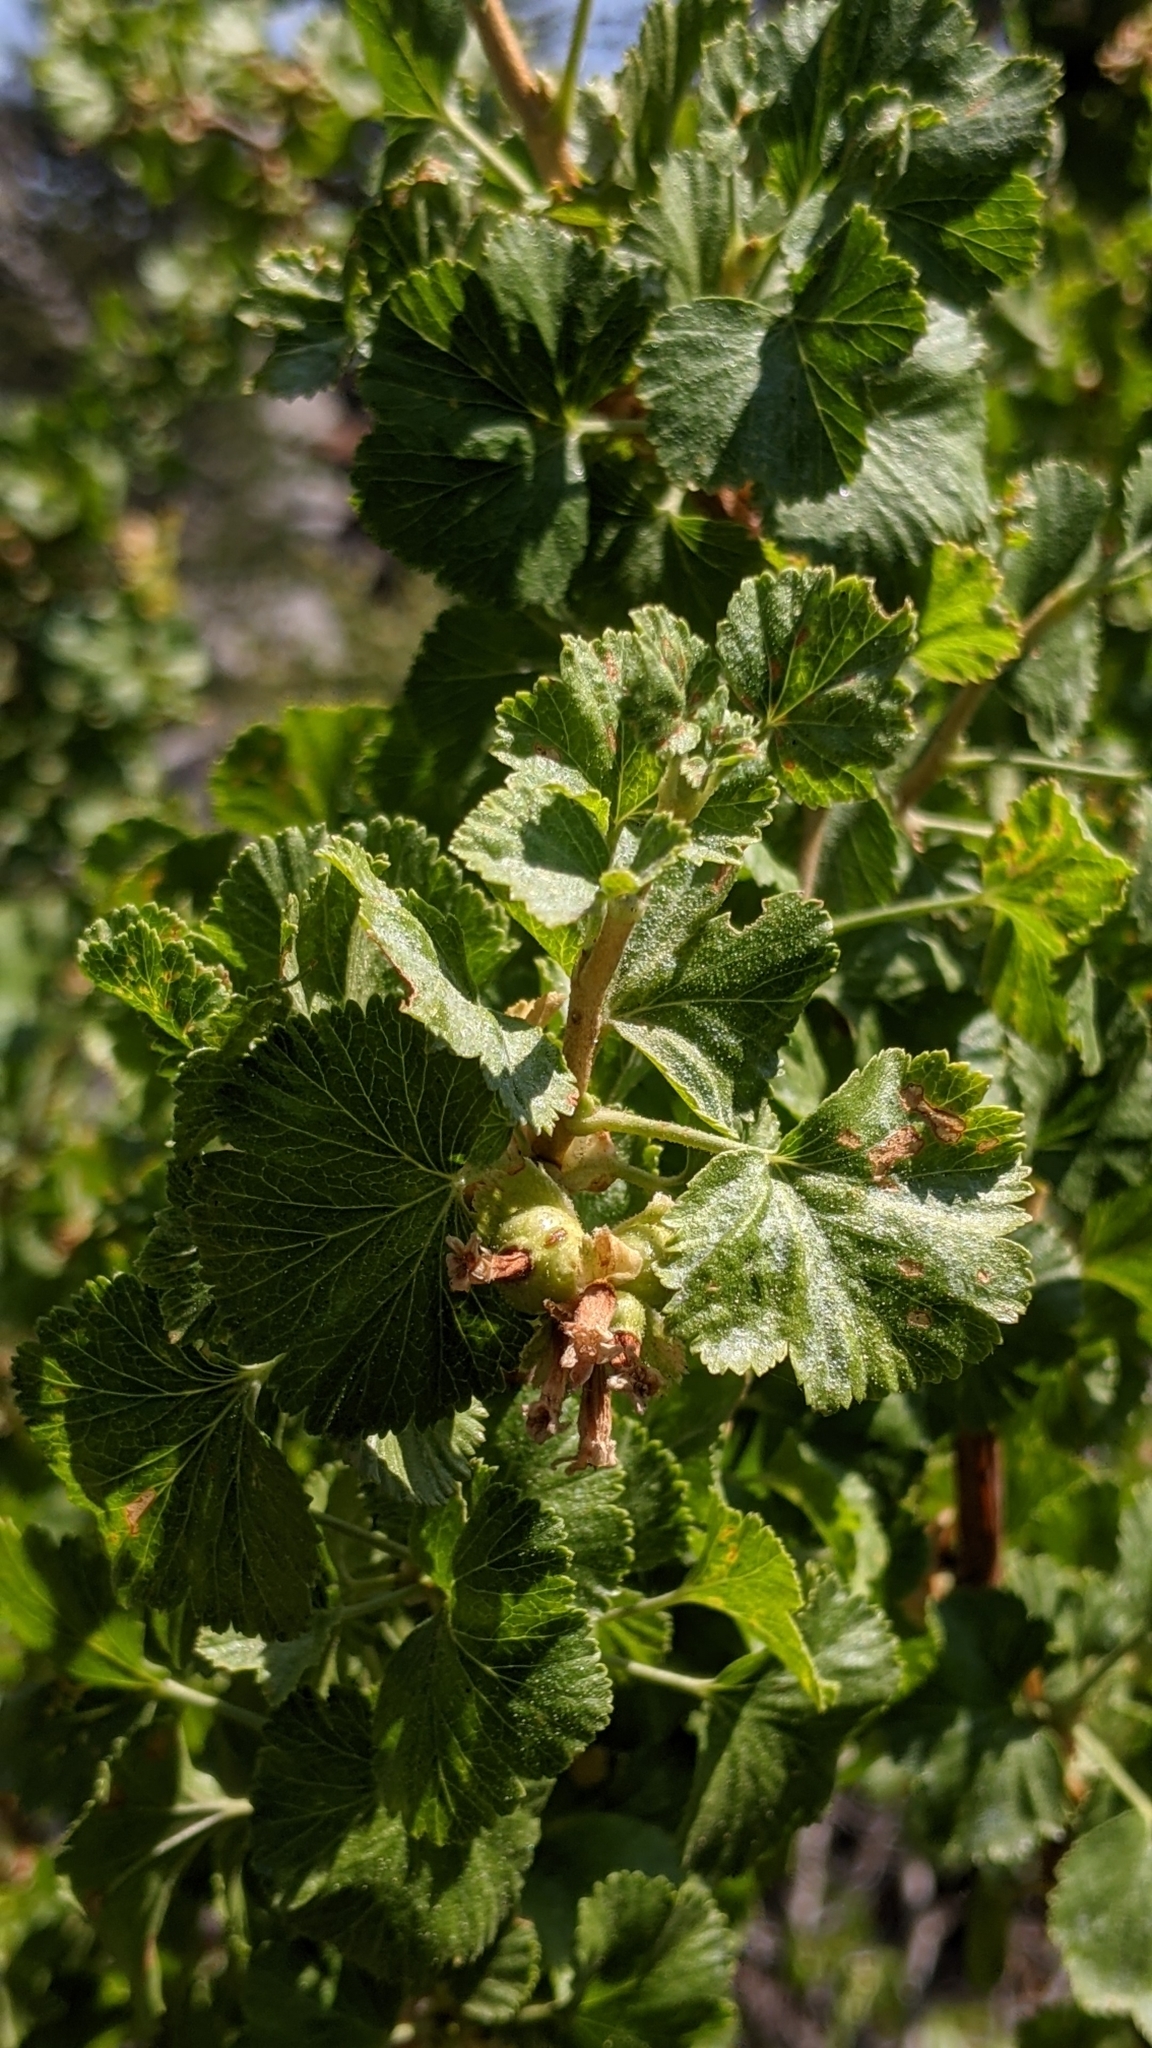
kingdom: Plantae
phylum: Tracheophyta
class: Magnoliopsida
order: Saxifragales
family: Grossulariaceae
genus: Ribes
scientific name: Ribes cereum
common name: Wax currant
